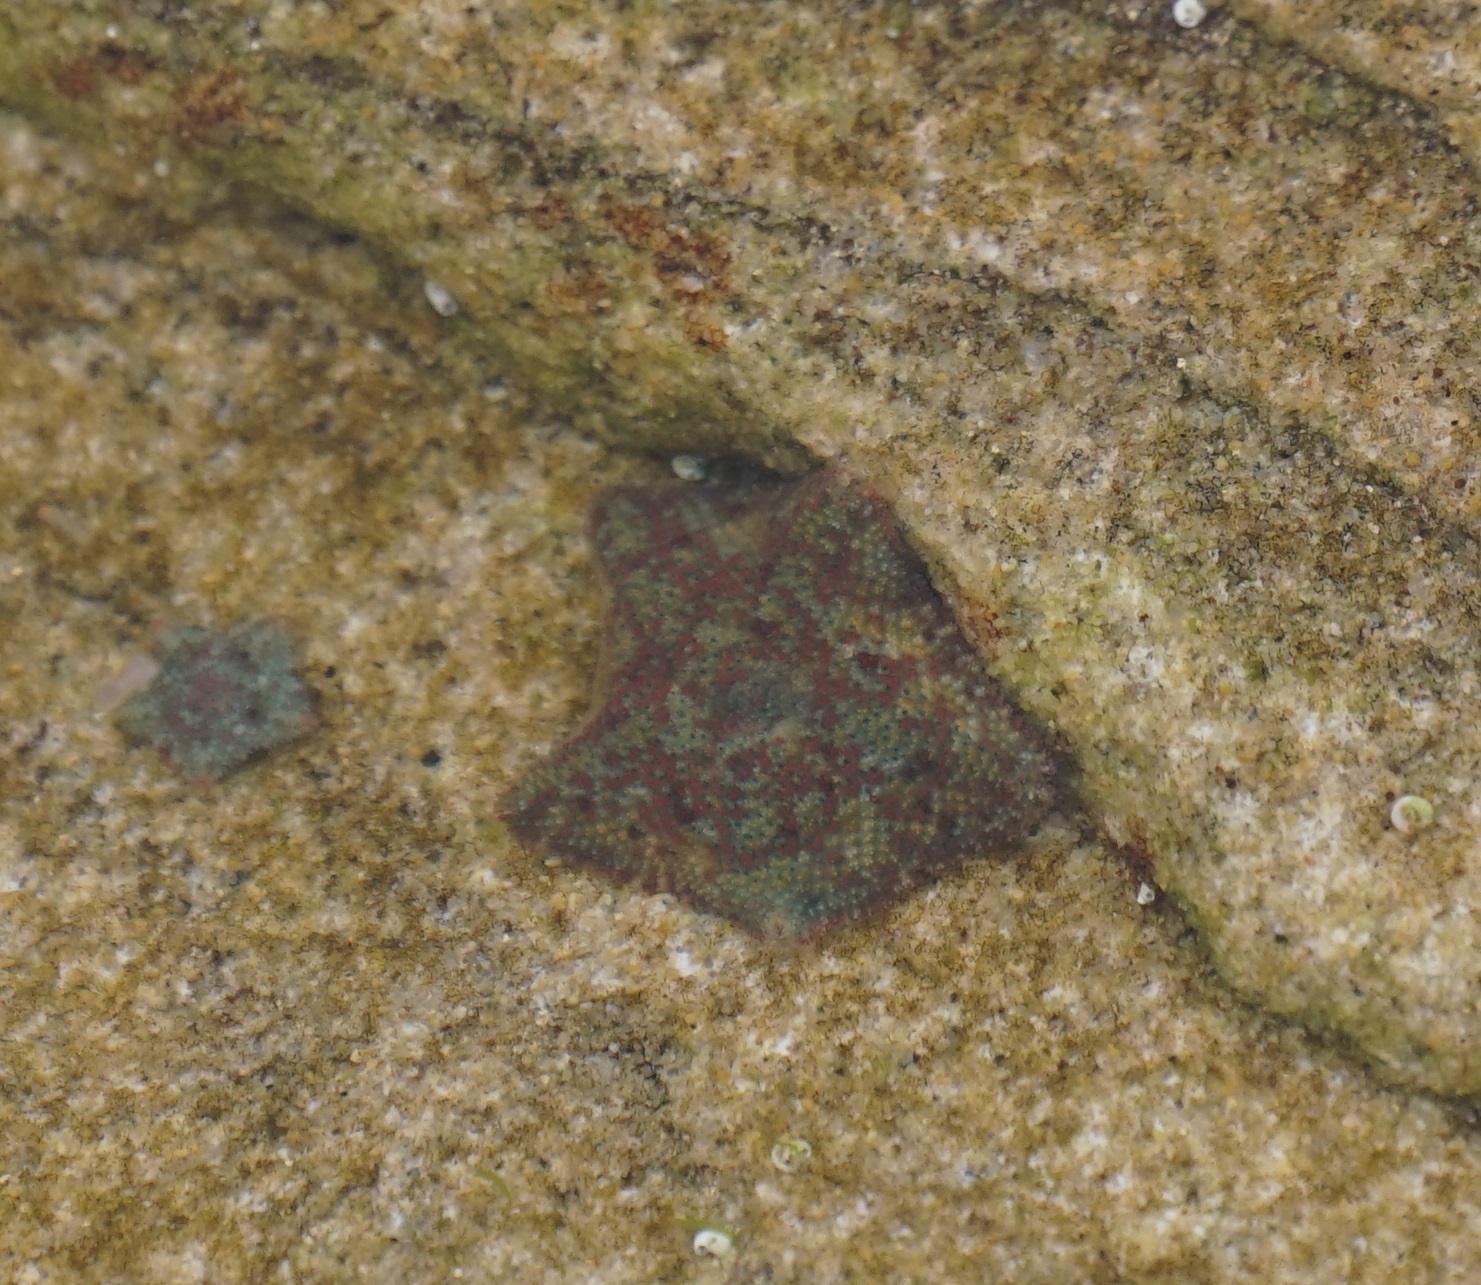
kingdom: Animalia
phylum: Echinodermata
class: Asteroidea
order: Valvatida
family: Asterinidae
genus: Parvulastra
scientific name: Parvulastra exigua
